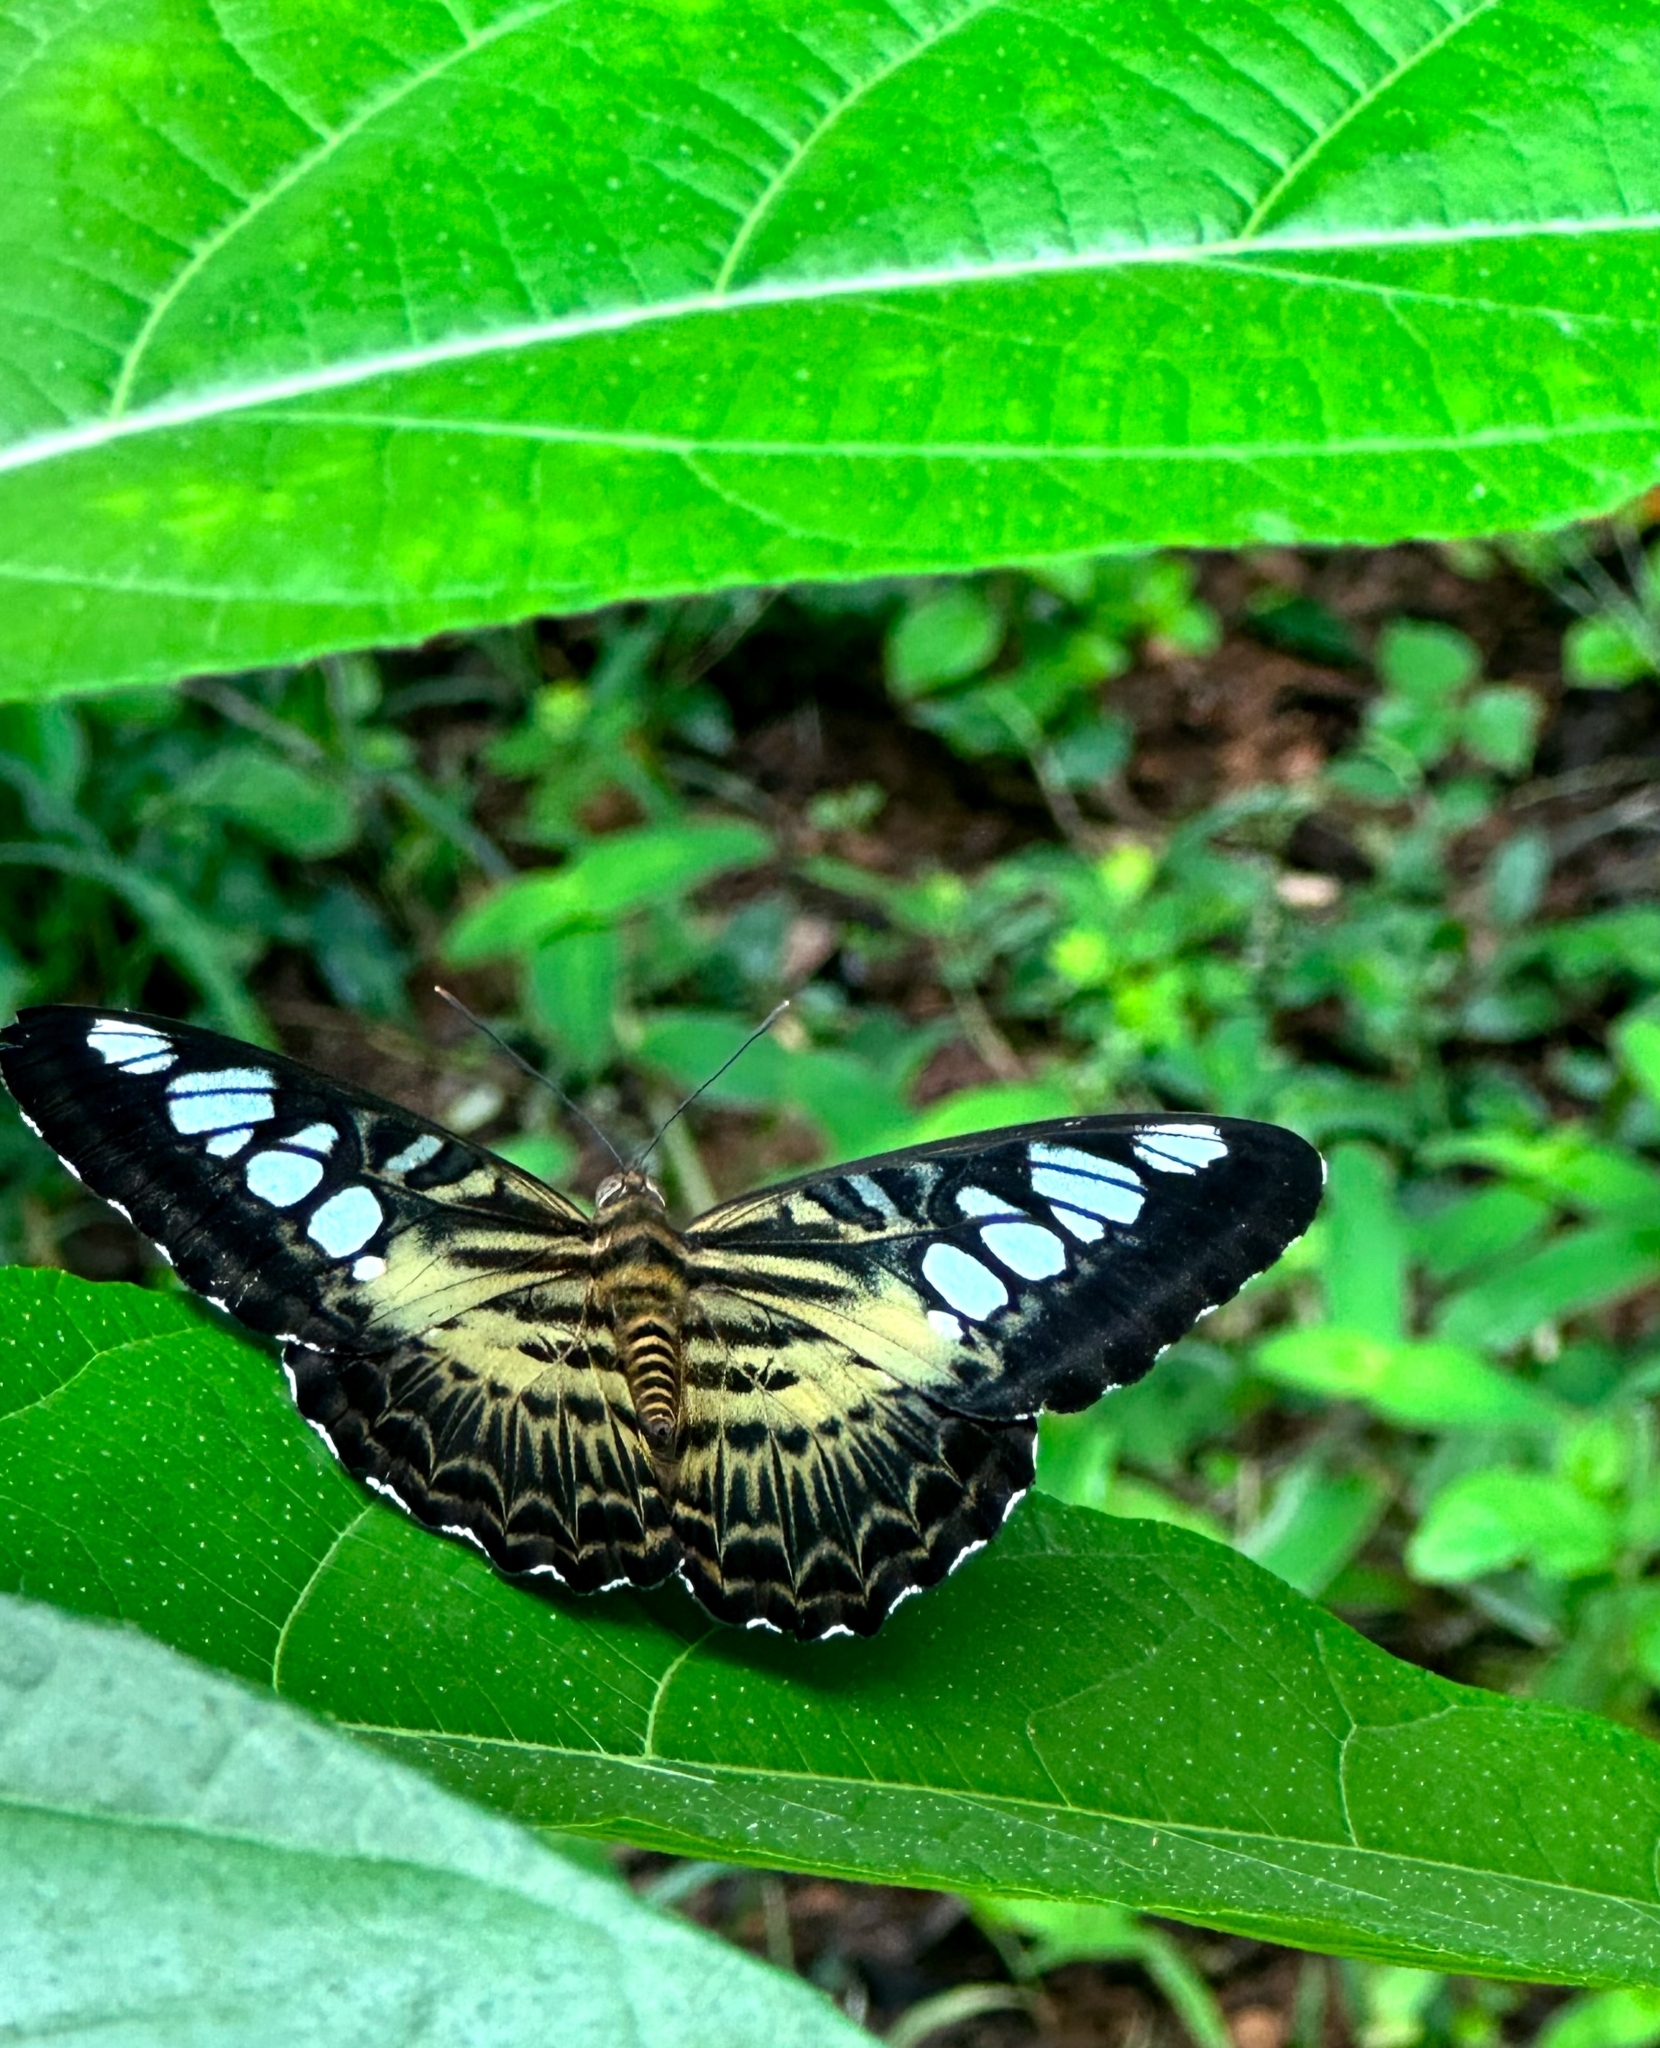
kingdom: Animalia
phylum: Arthropoda
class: Insecta
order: Lepidoptera
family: Nymphalidae
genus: Kallima
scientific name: Kallima sylvia
